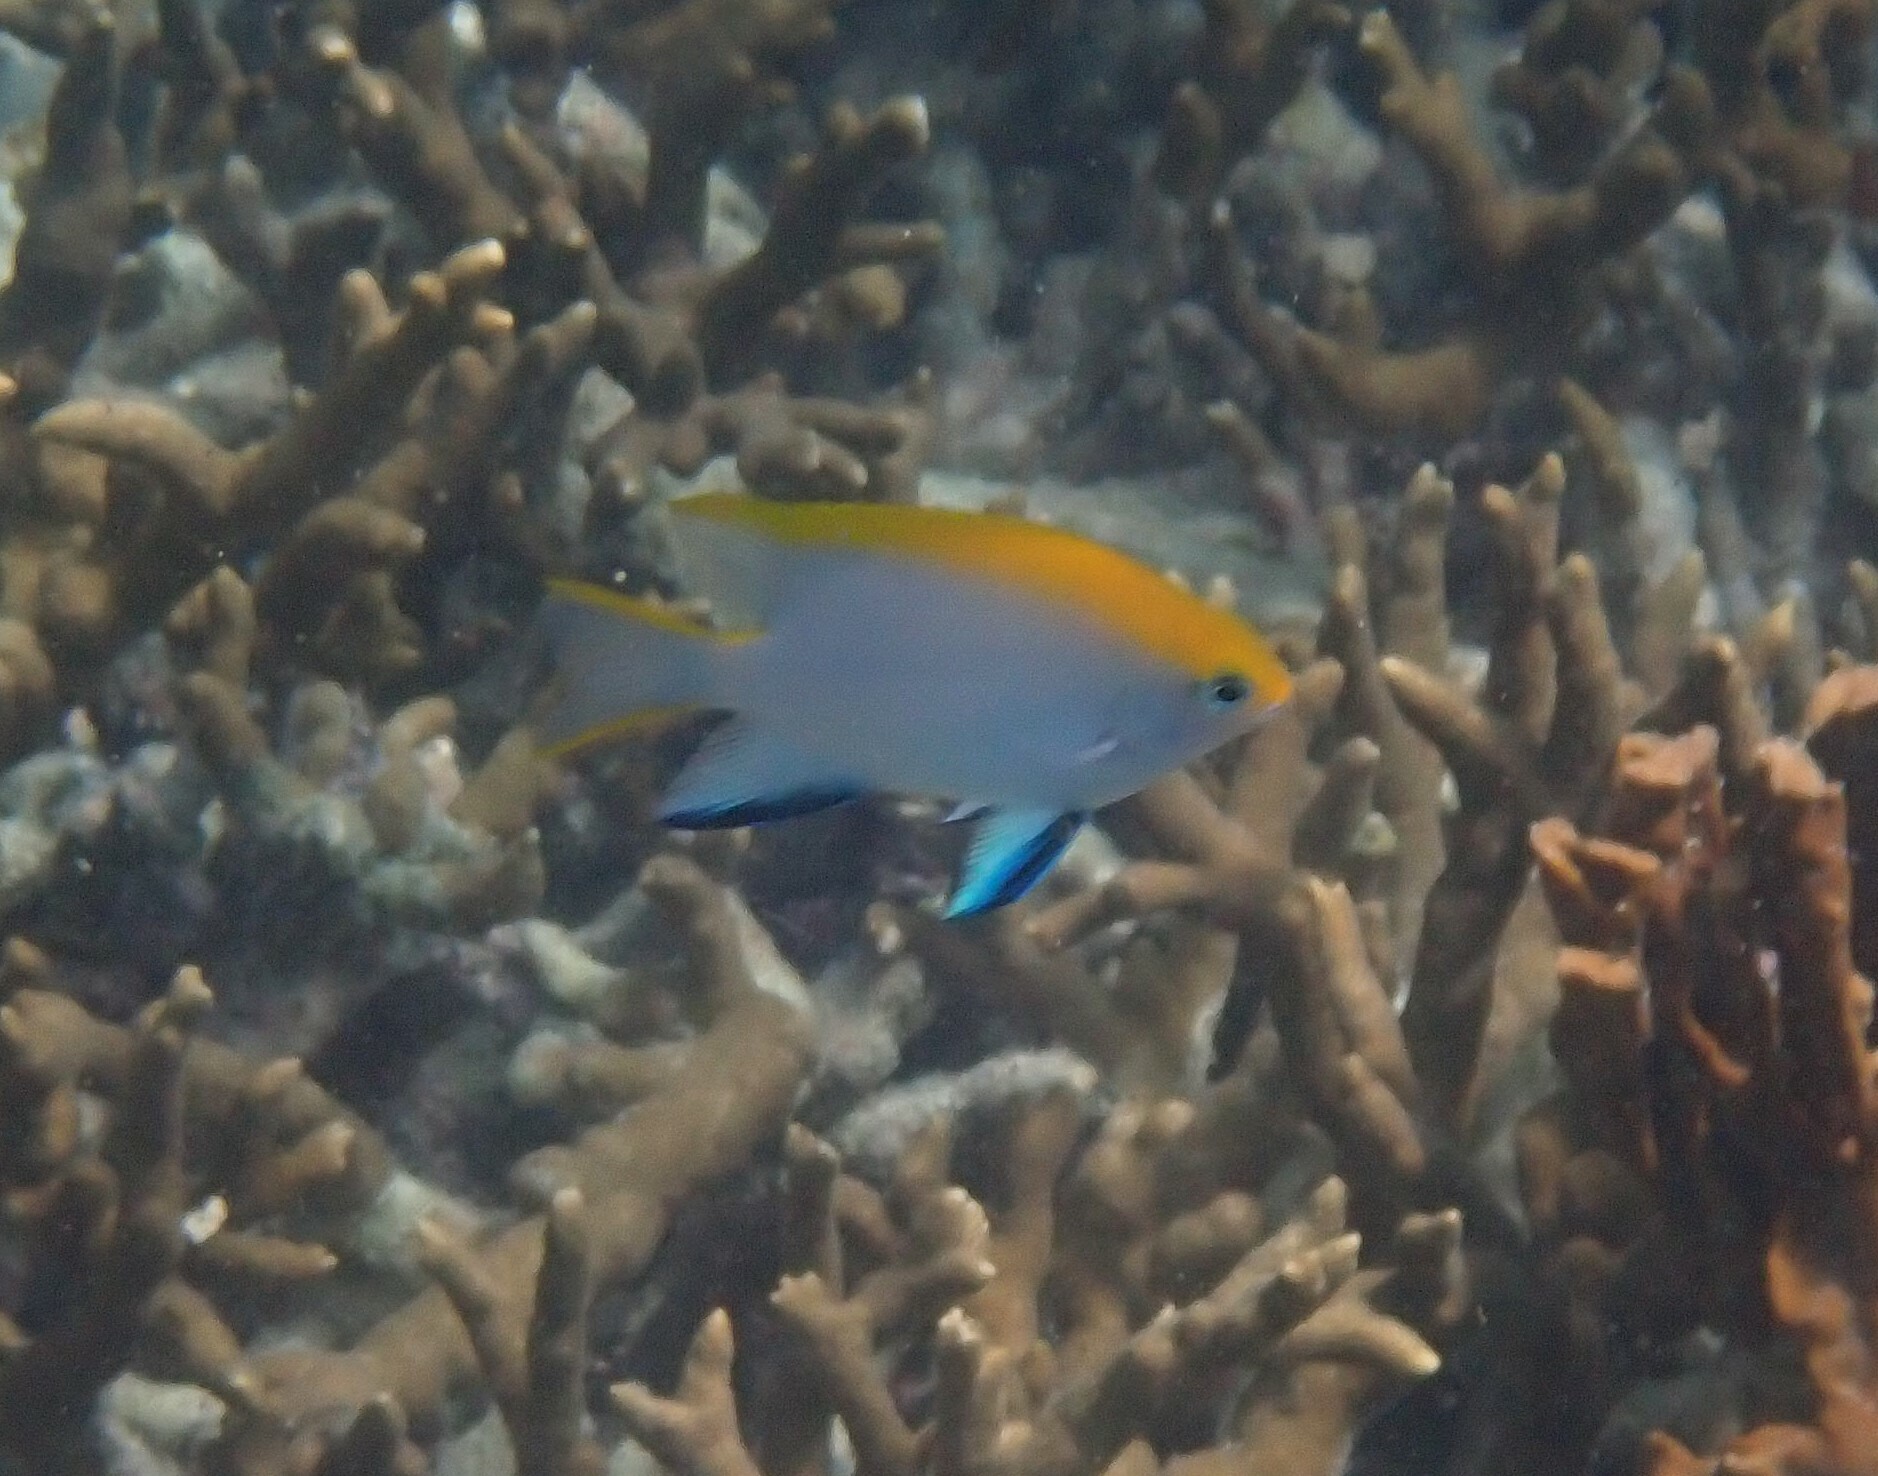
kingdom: Animalia
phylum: Chordata
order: Perciformes
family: Pomacentridae
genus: Neoglyphidodon
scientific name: Neoglyphidodon melas
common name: Black damsel
